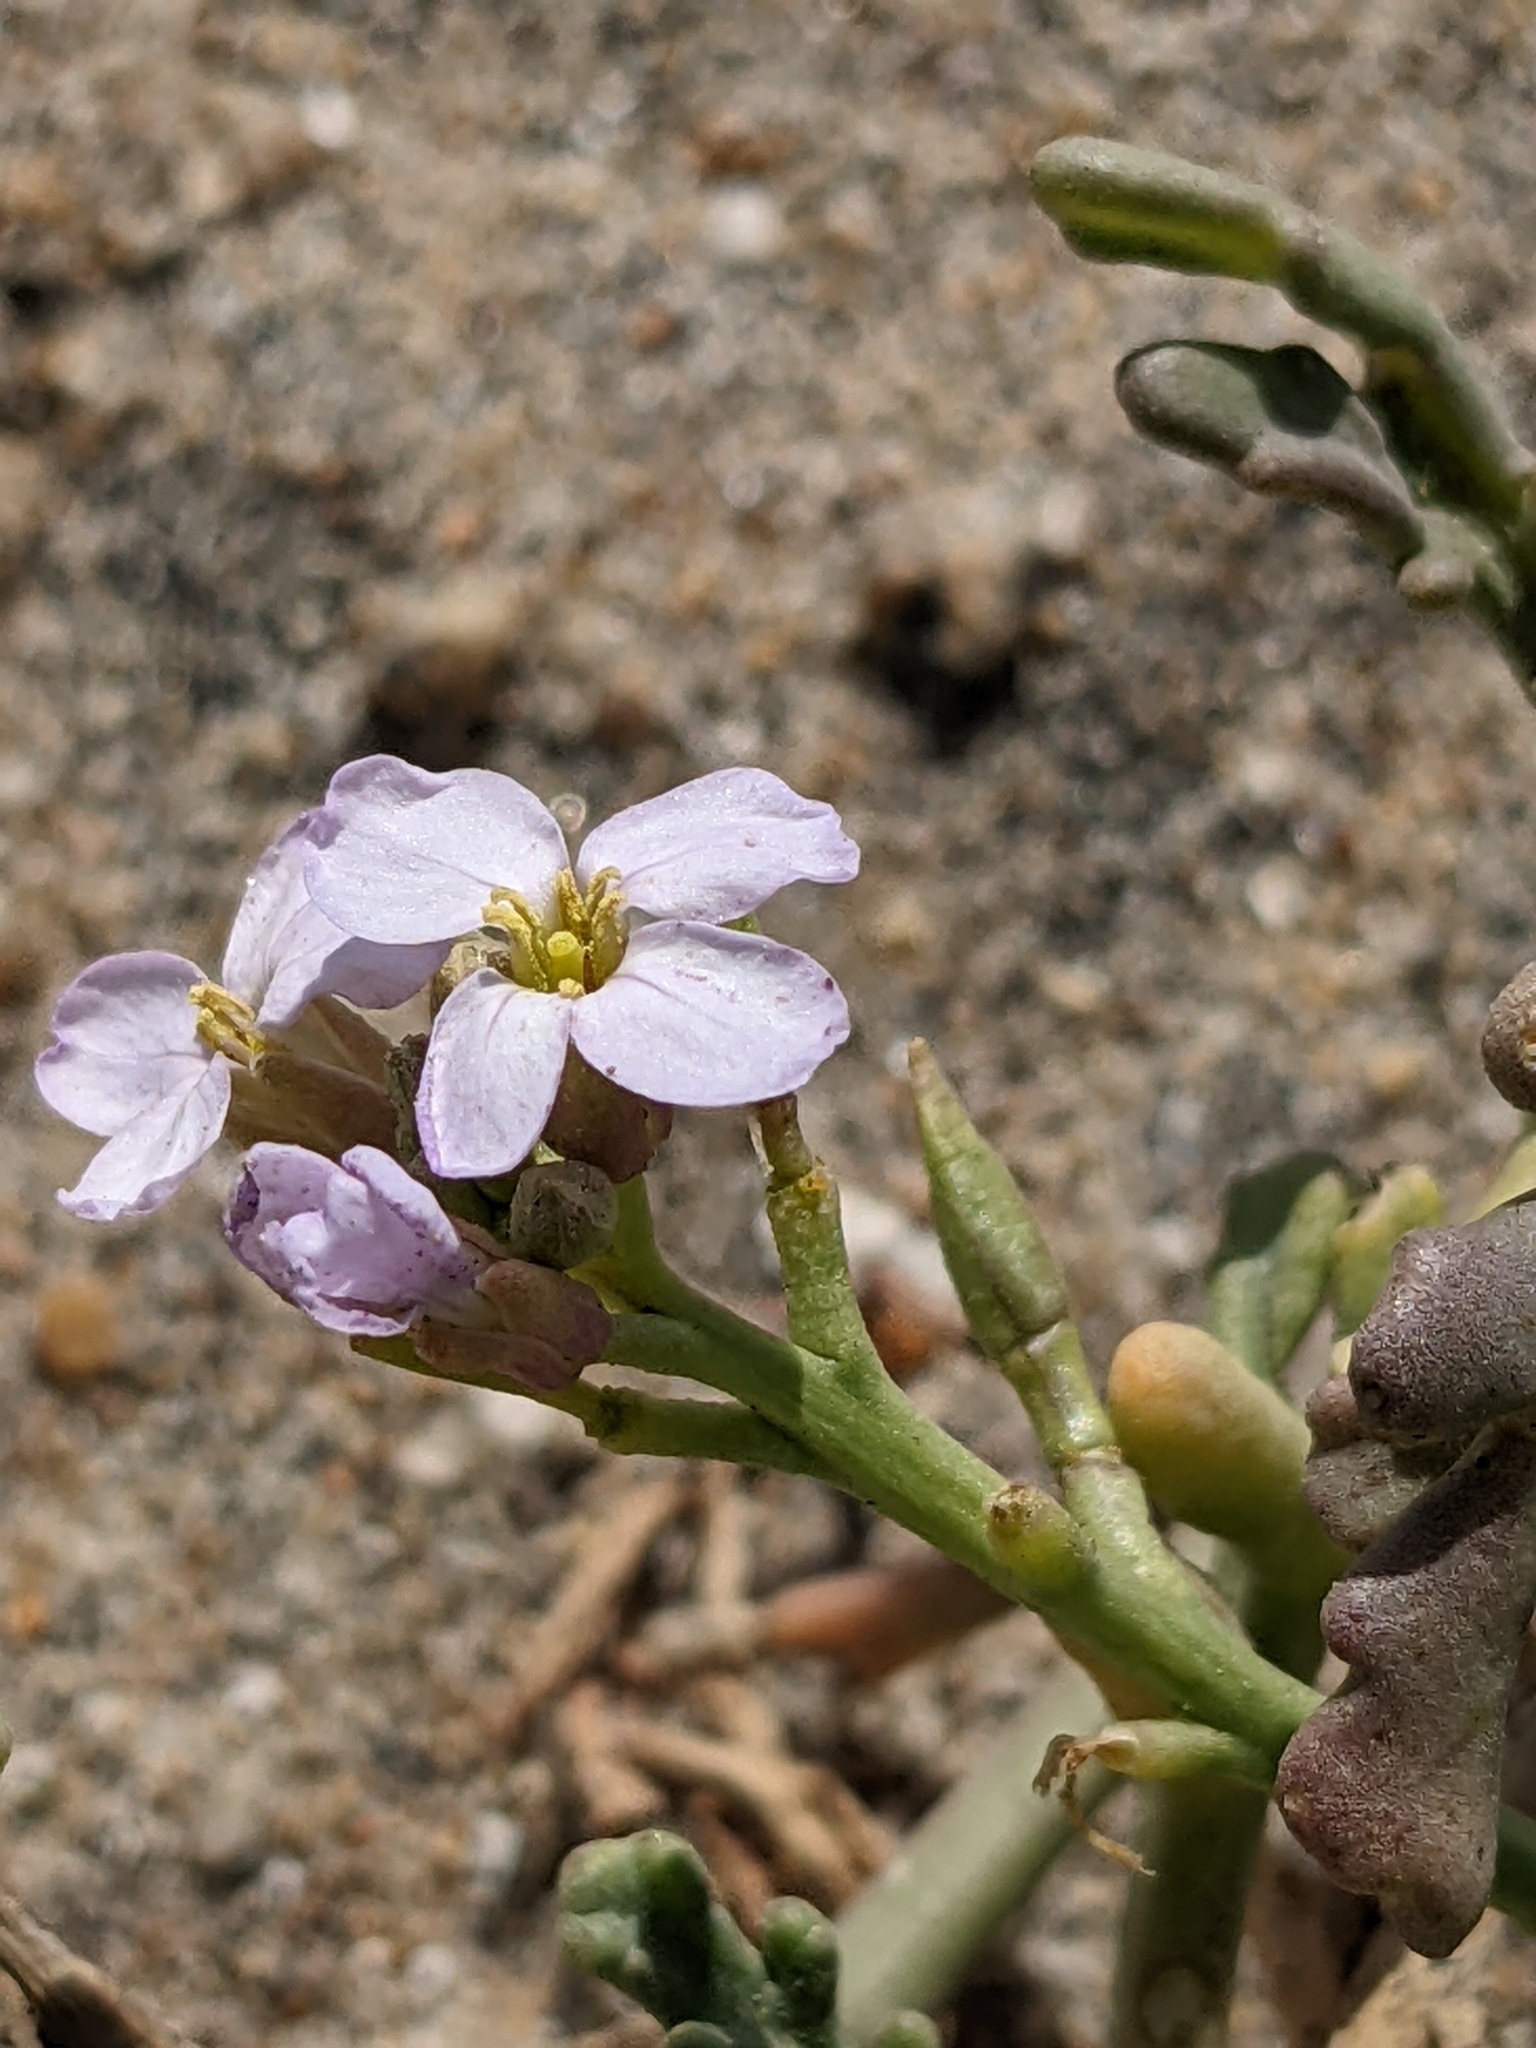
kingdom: Plantae
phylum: Tracheophyta
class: Magnoliopsida
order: Brassicales
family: Brassicaceae
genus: Cakile
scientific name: Cakile maritima
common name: Sea rocket
